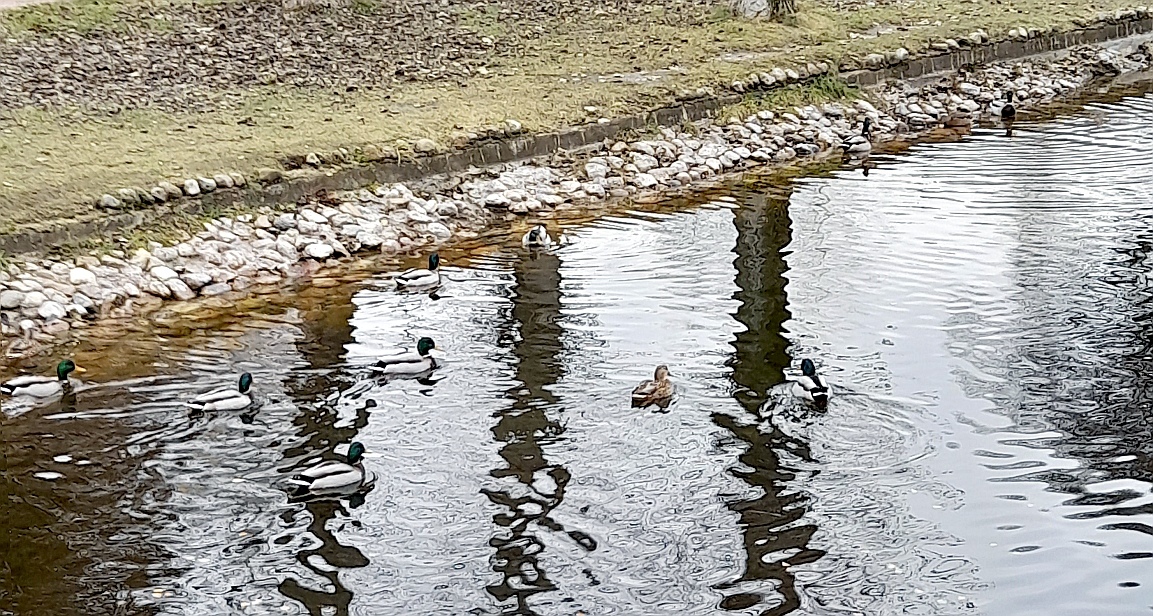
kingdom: Animalia
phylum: Chordata
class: Aves
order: Anseriformes
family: Anatidae
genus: Anas
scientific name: Anas platyrhynchos
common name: Mallard
